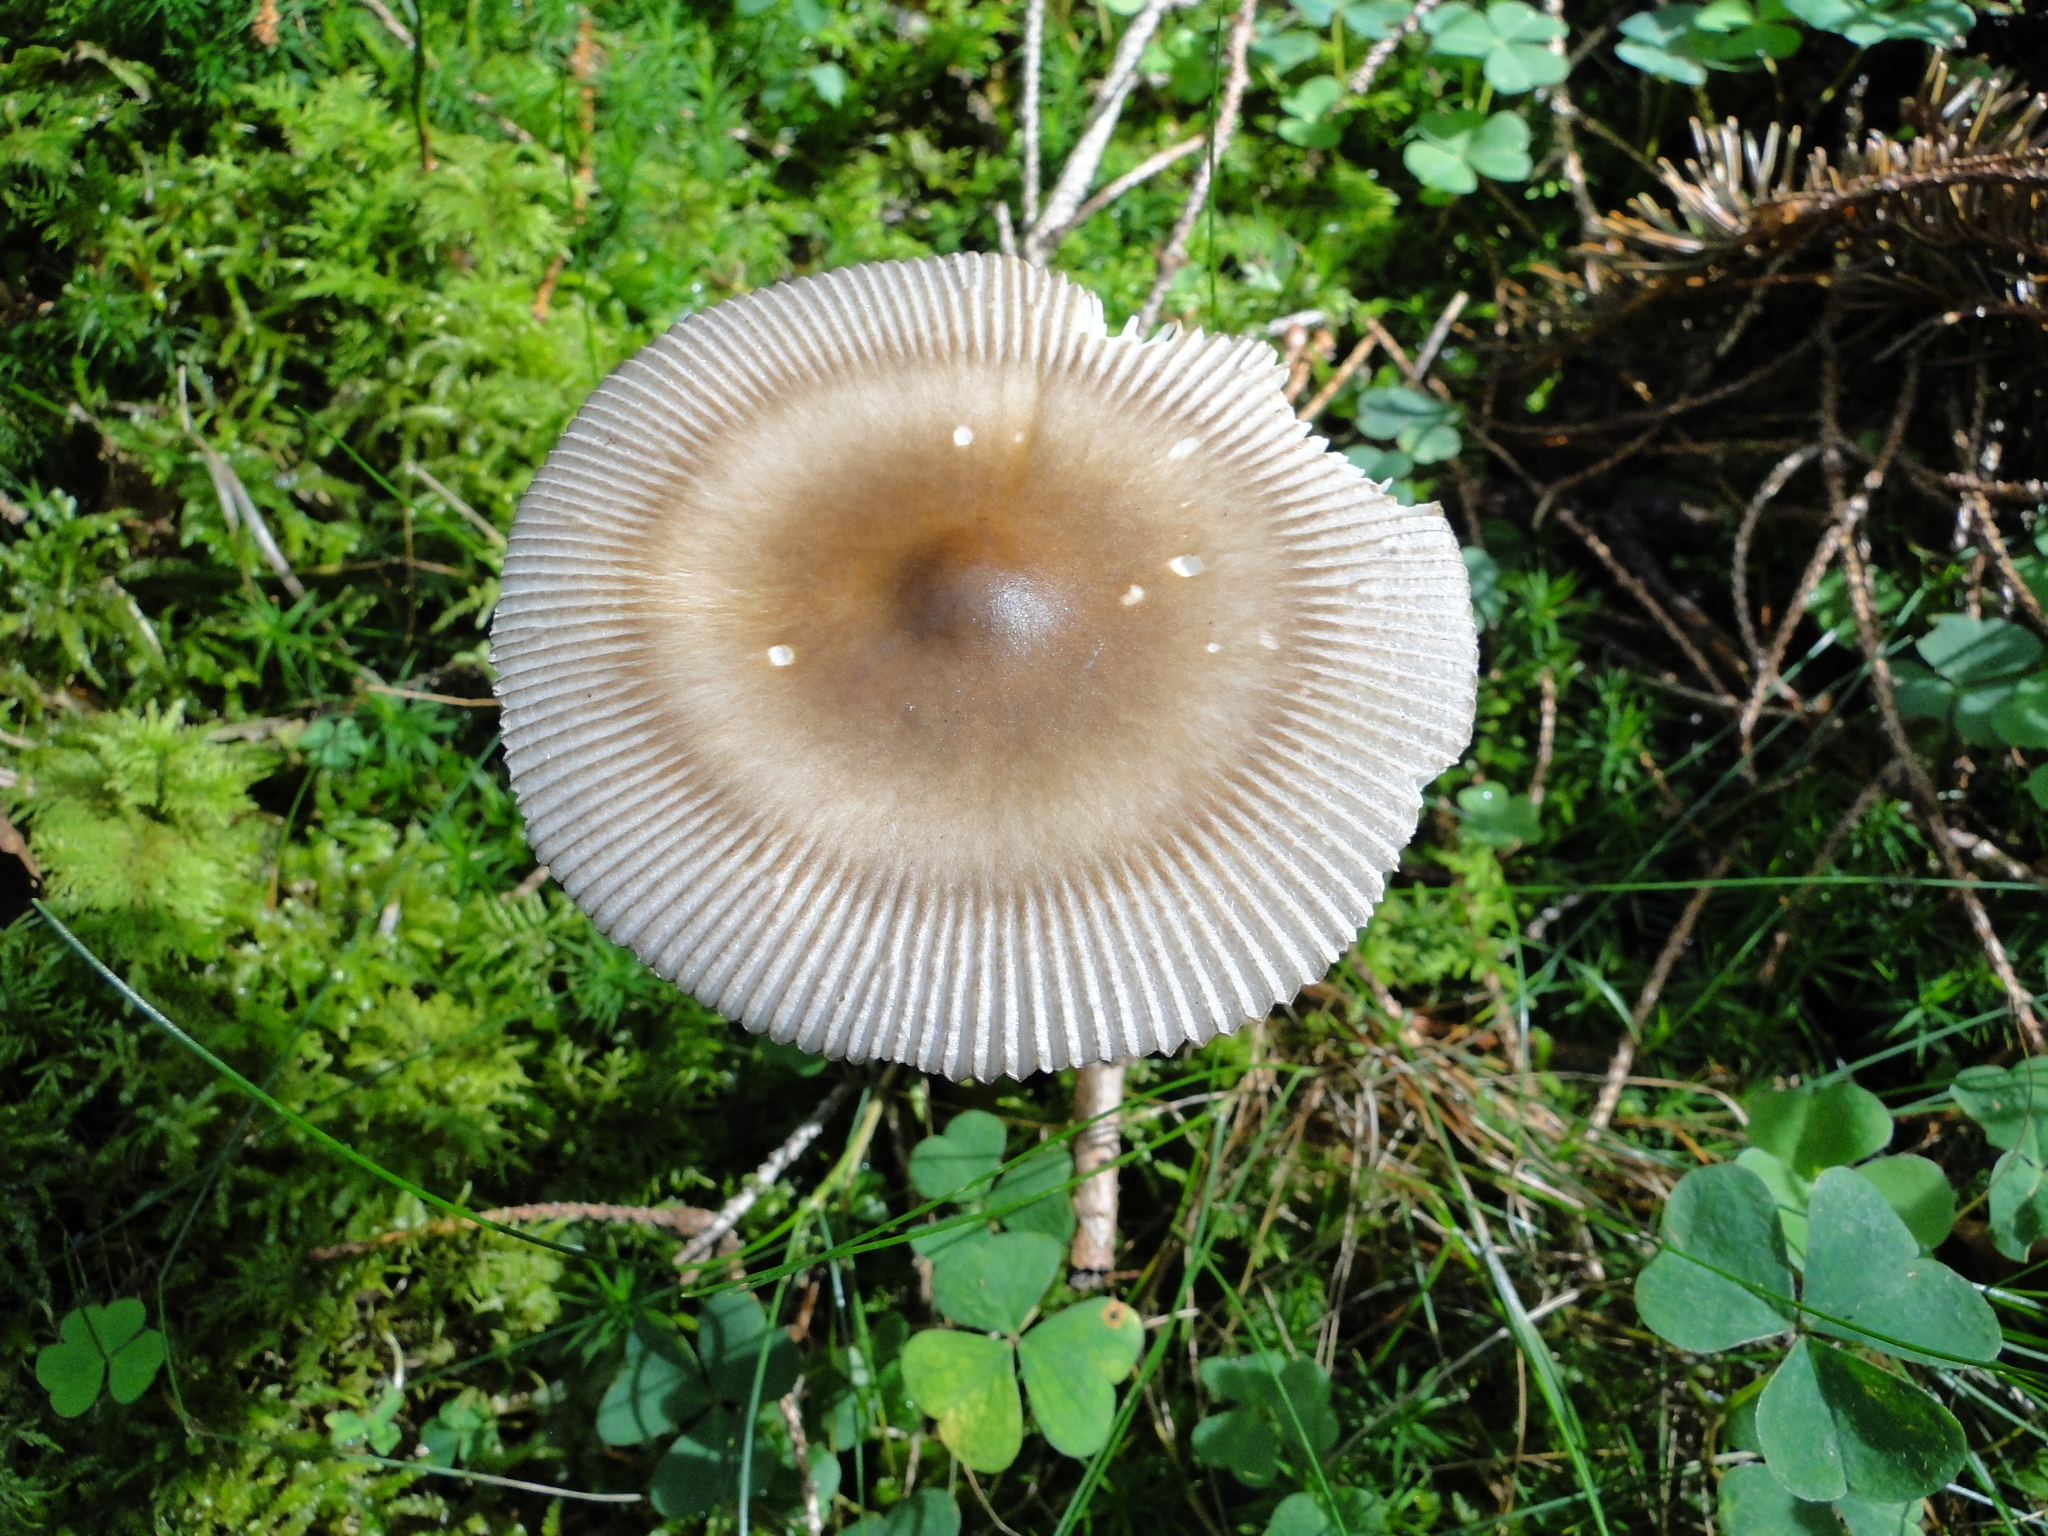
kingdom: Fungi
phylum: Basidiomycota
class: Agaricomycetes
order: Agaricales
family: Amanitaceae
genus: Amanita
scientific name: Amanita battarrae
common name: Banded amanita
